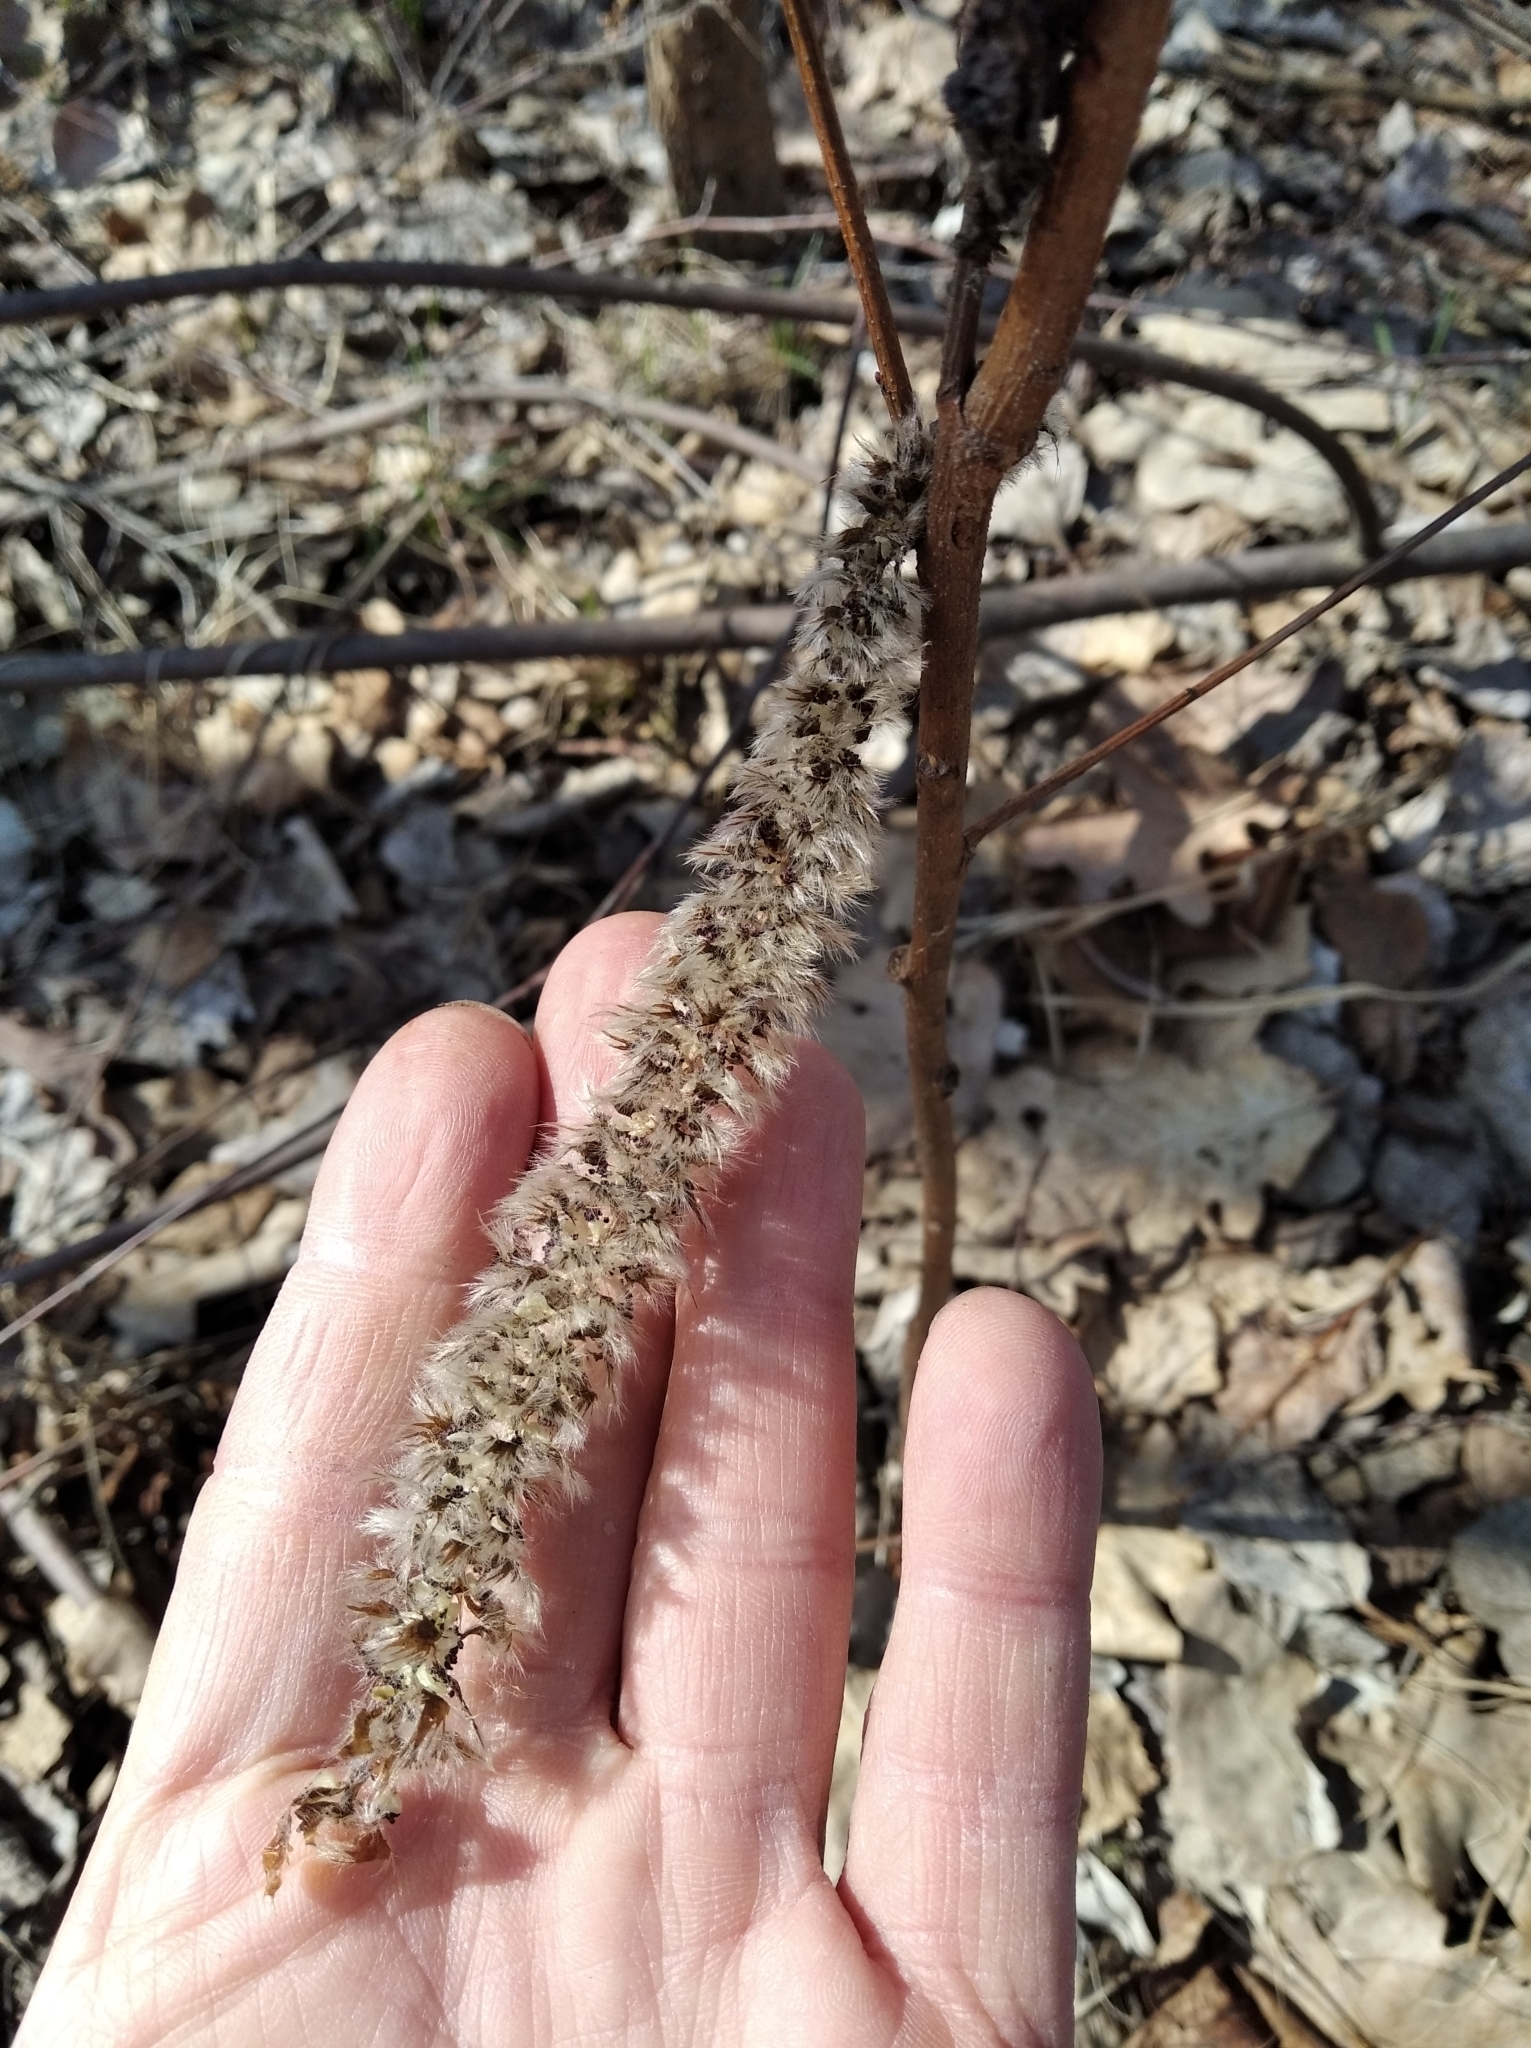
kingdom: Plantae
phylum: Tracheophyta
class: Magnoliopsida
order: Malpighiales
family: Salicaceae
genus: Populus
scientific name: Populus tremula
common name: European aspen
